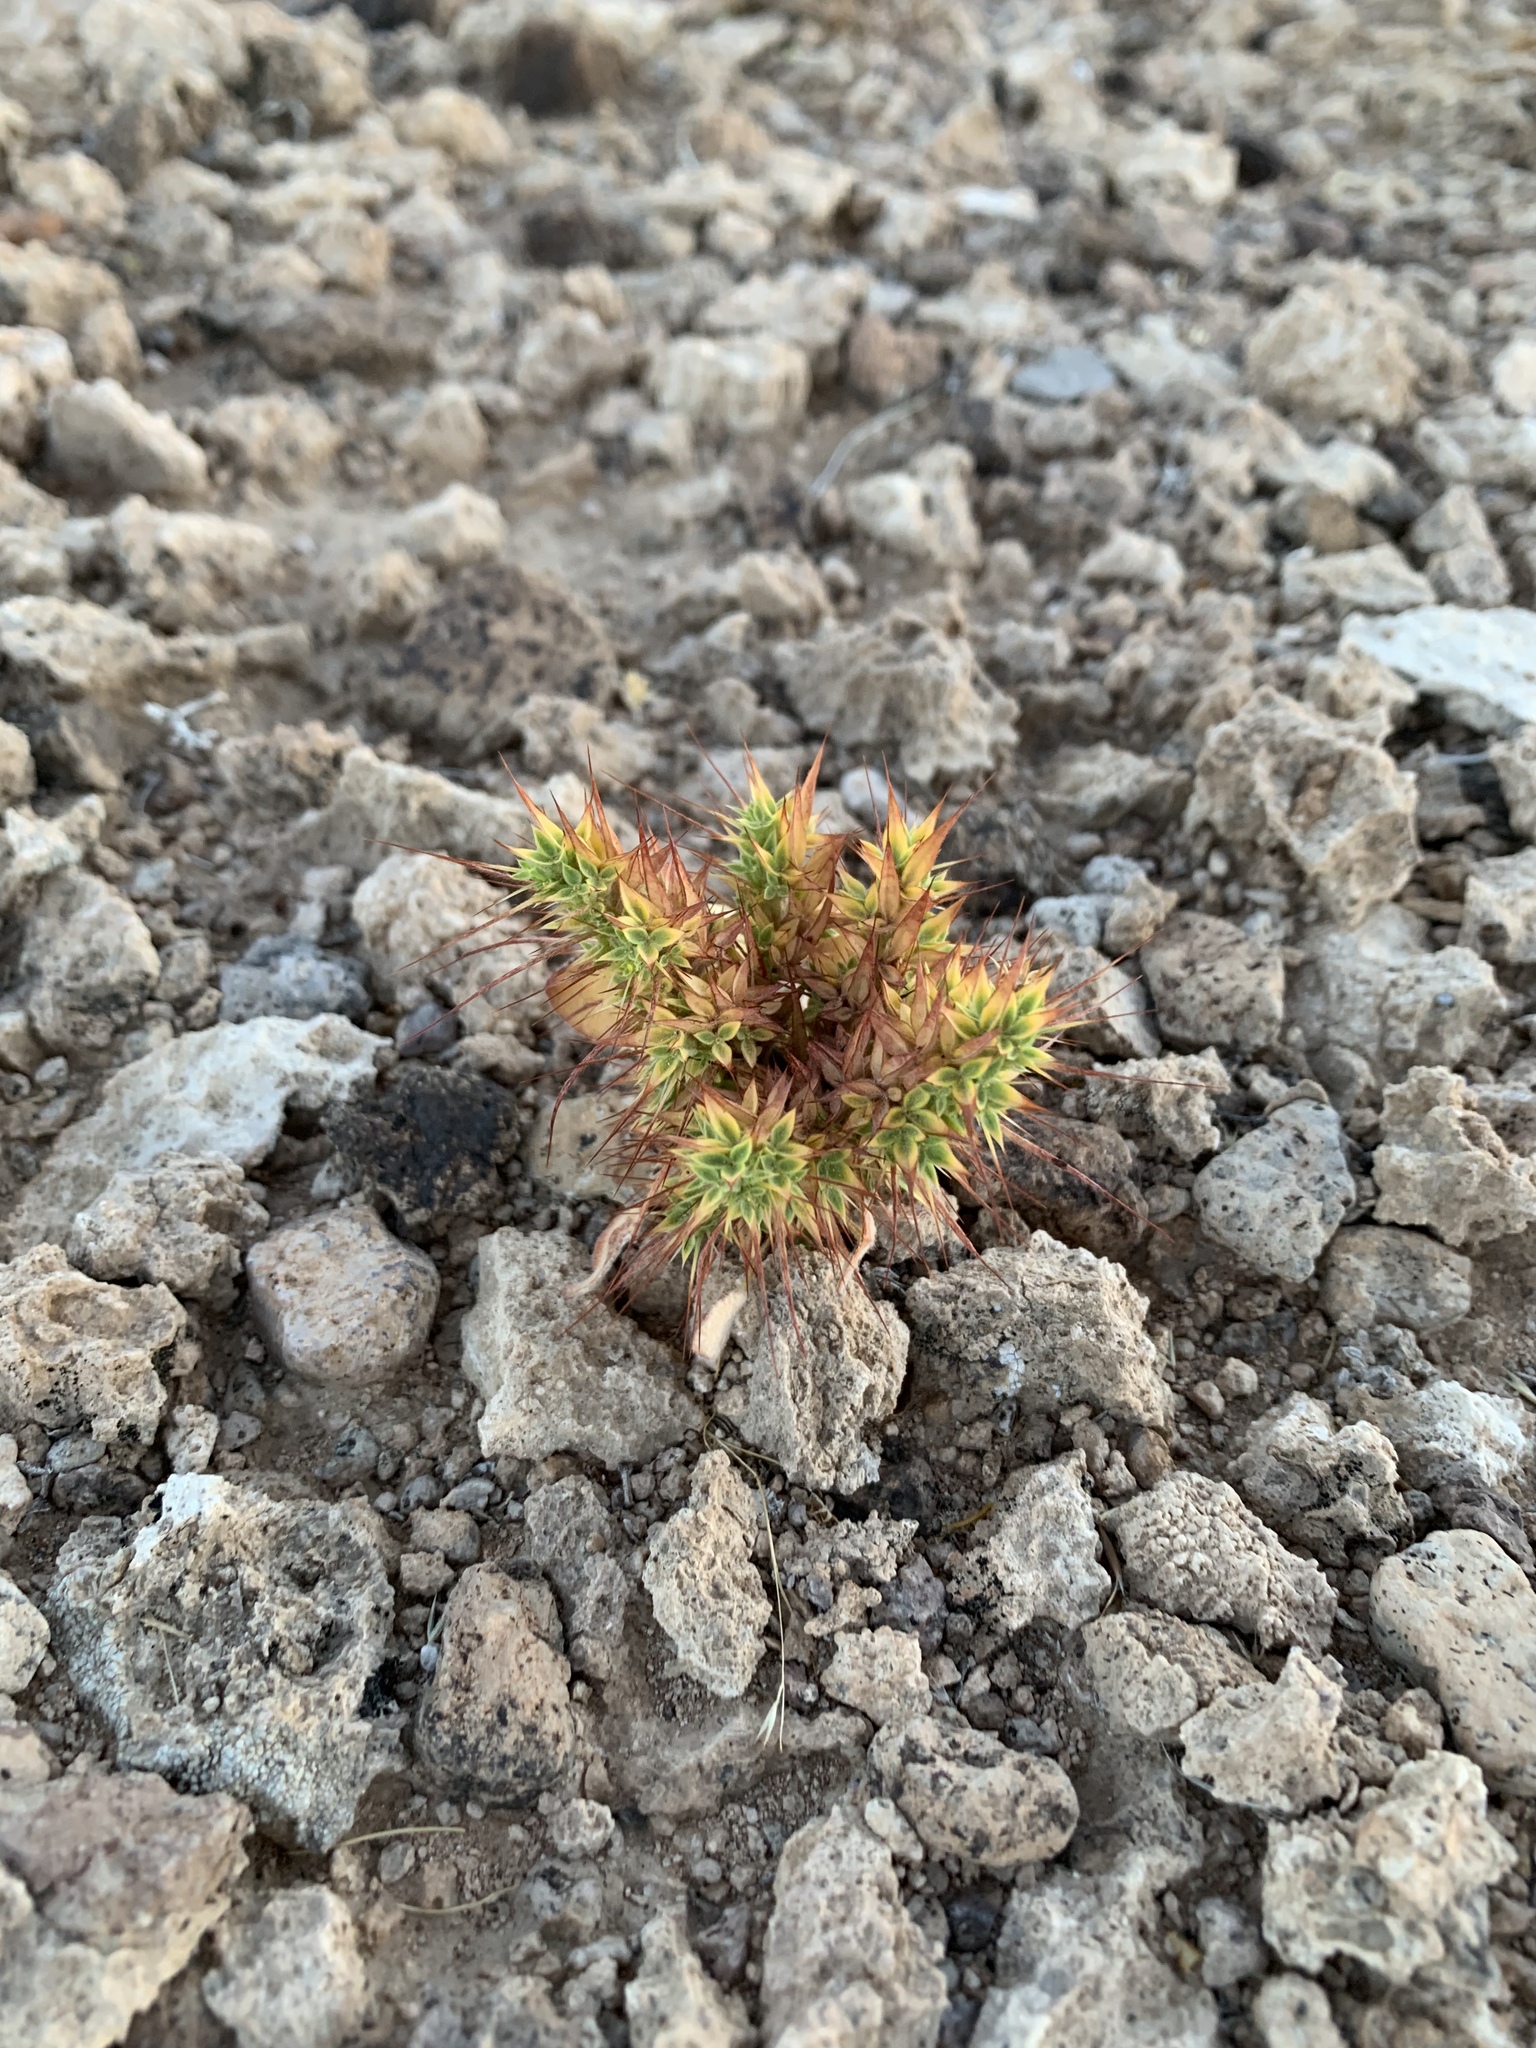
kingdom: Plantae
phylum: Tracheophyta
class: Magnoliopsida
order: Caryophyllales
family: Polygonaceae
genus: Chorizanthe
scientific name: Chorizanthe rigida
